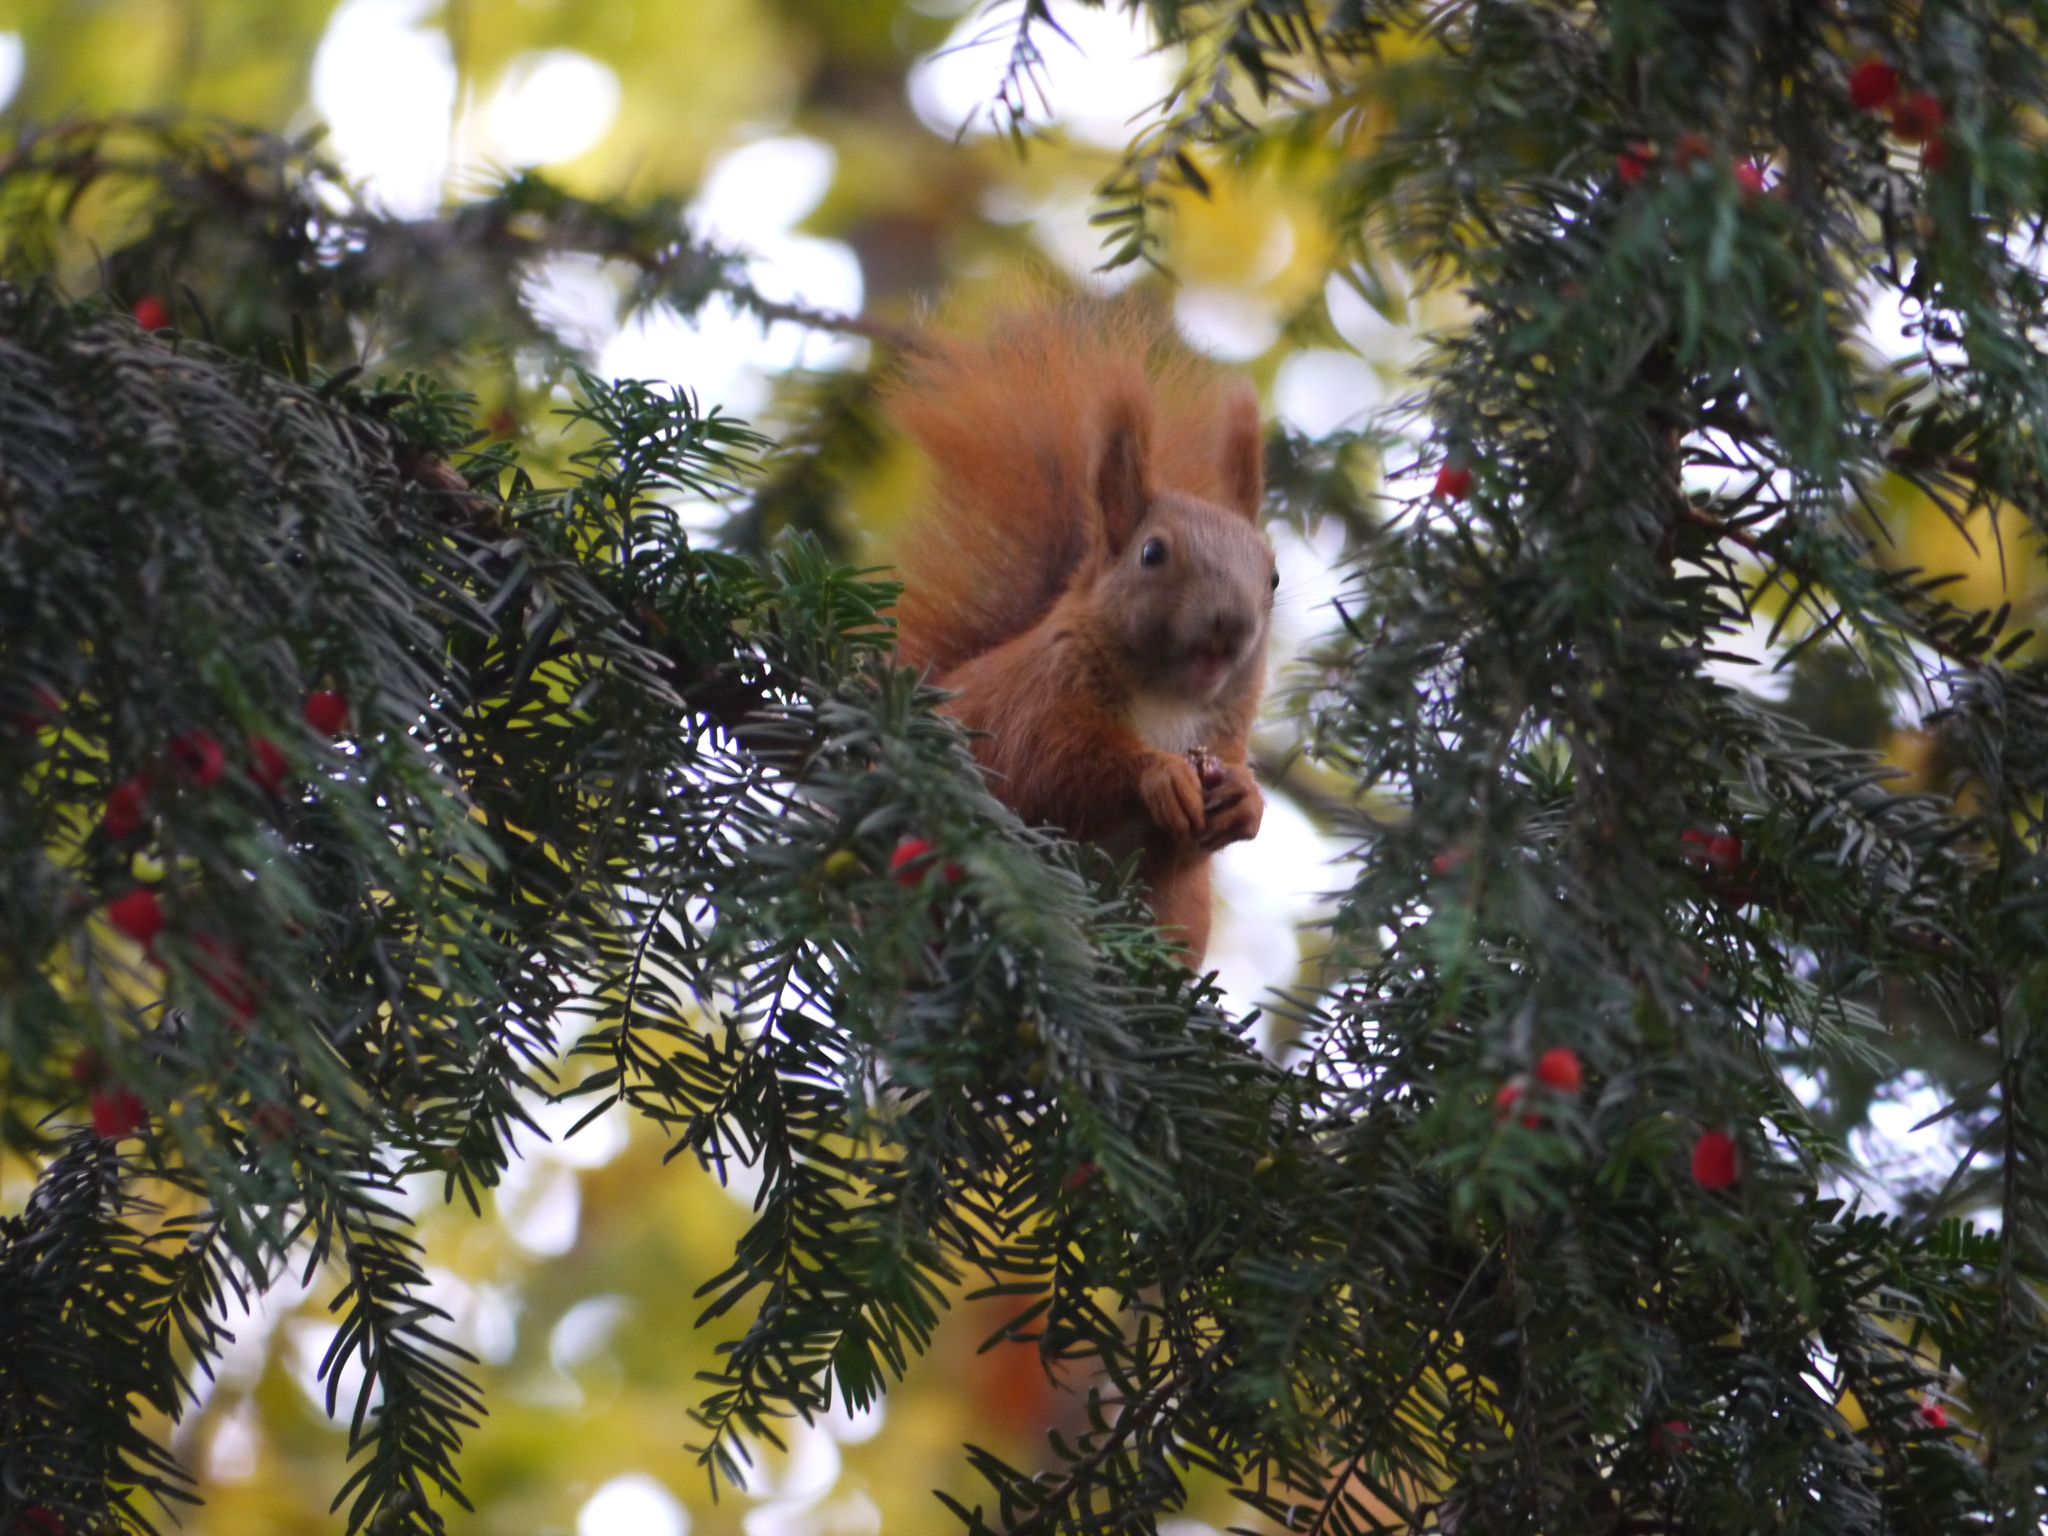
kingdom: Animalia
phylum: Chordata
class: Mammalia
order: Rodentia
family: Sciuridae
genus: Sciurus
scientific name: Sciurus vulgaris
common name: Eurasian red squirrel
